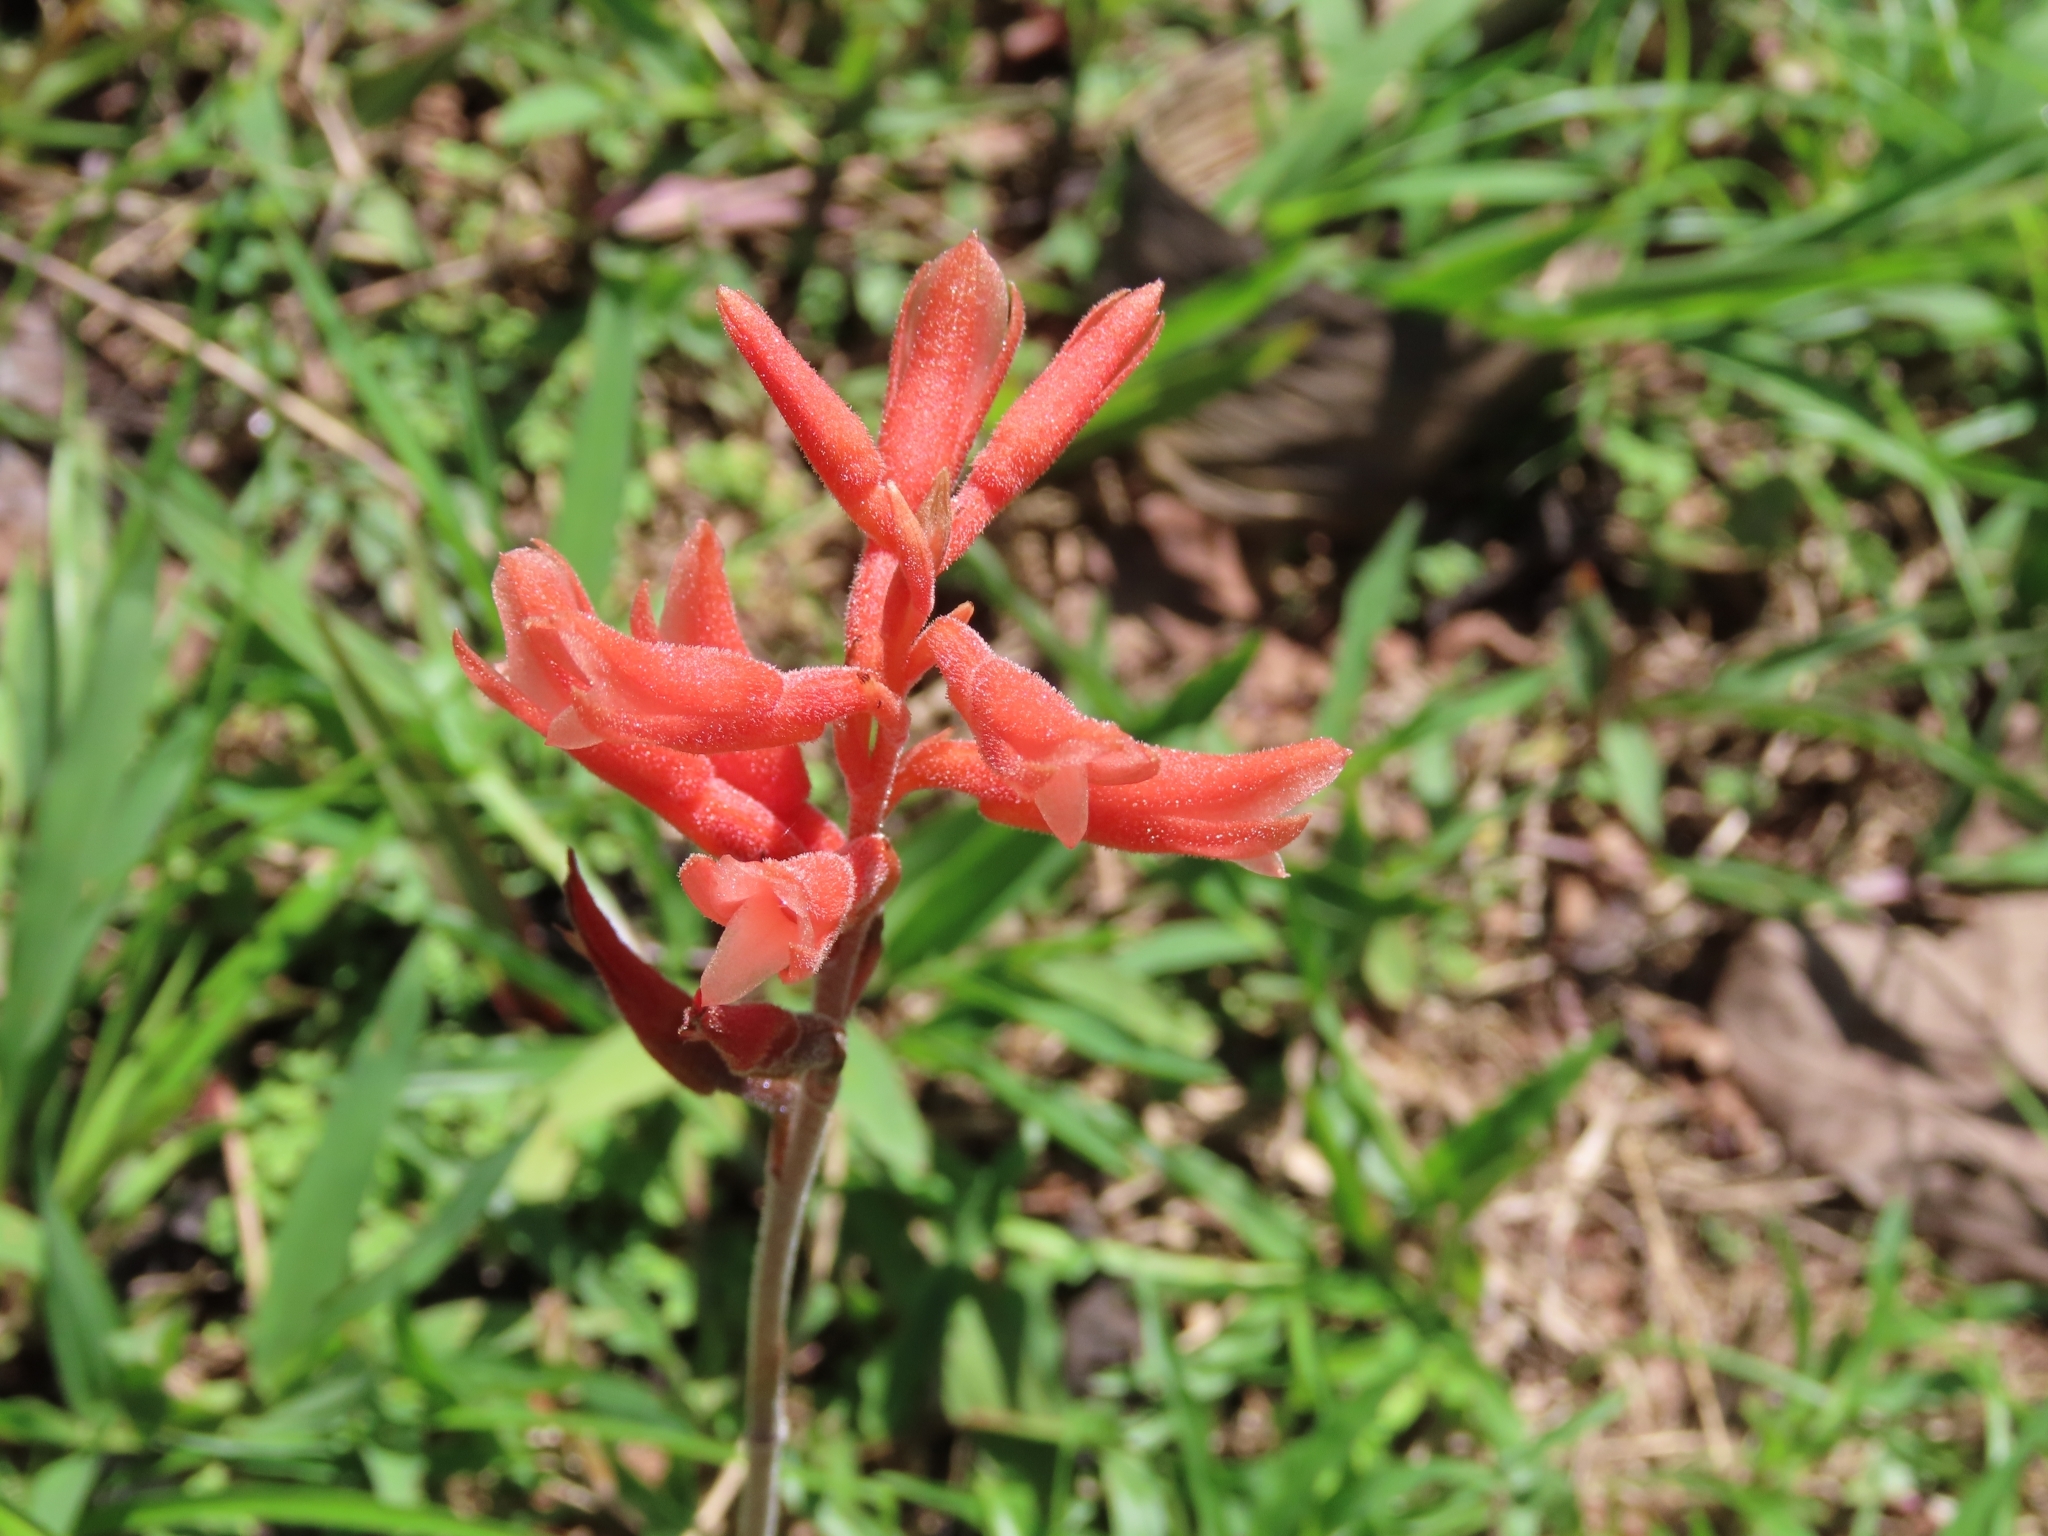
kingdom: Plantae
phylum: Tracheophyta
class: Liliopsida
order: Asparagales
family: Orchidaceae
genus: Sacoila
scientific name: Sacoila lanceolata
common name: Leafless beaked ladiestresses
